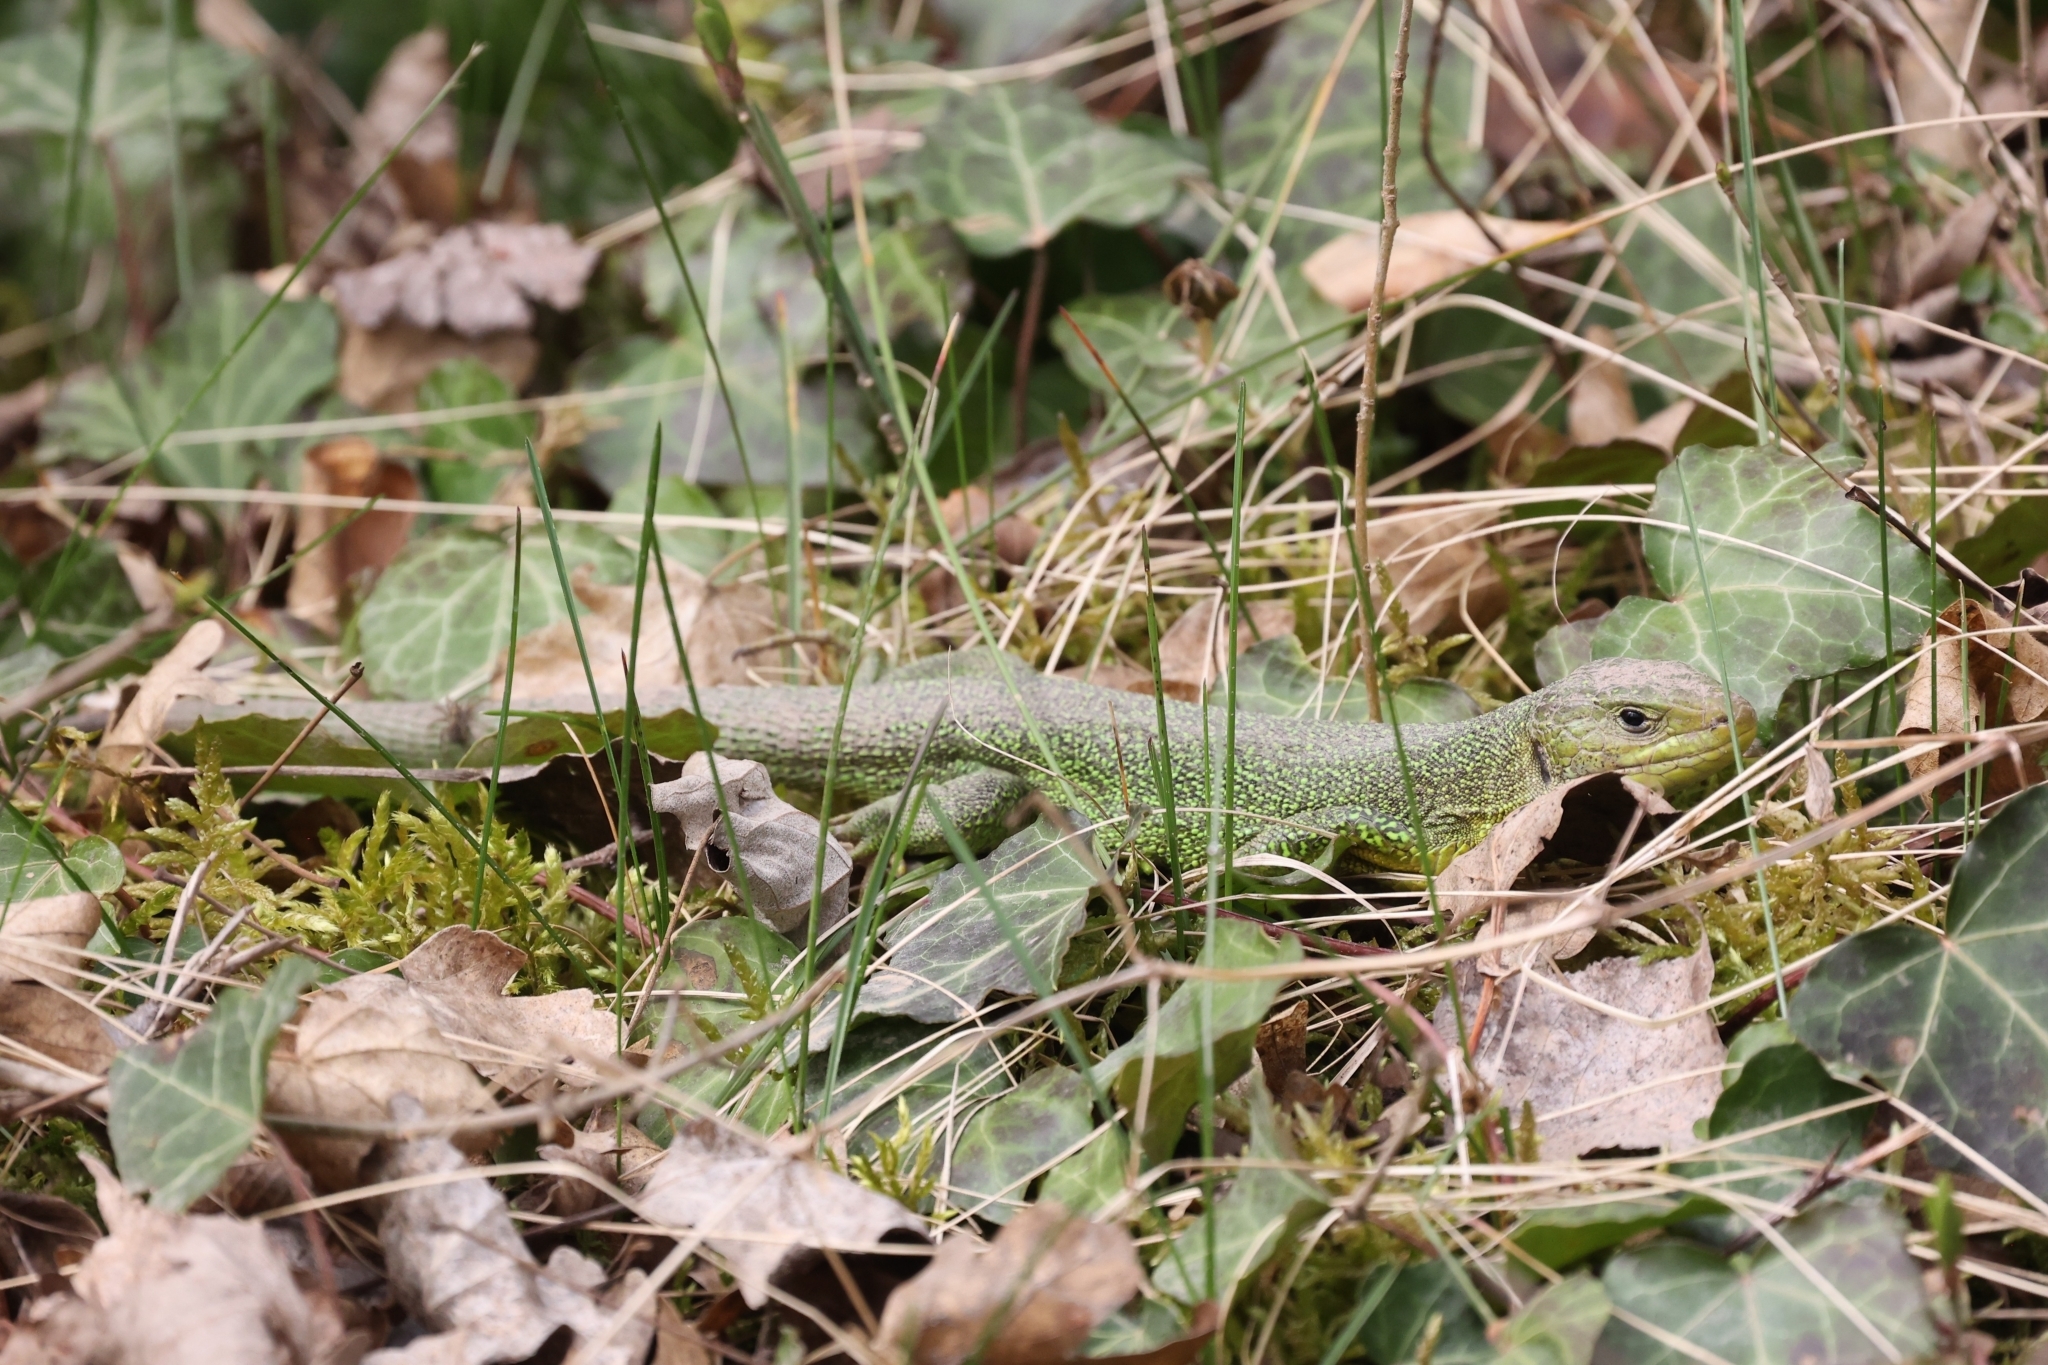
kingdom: Animalia
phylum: Chordata
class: Squamata
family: Lacertidae
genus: Lacerta
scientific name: Lacerta bilineata
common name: Western green lizard
